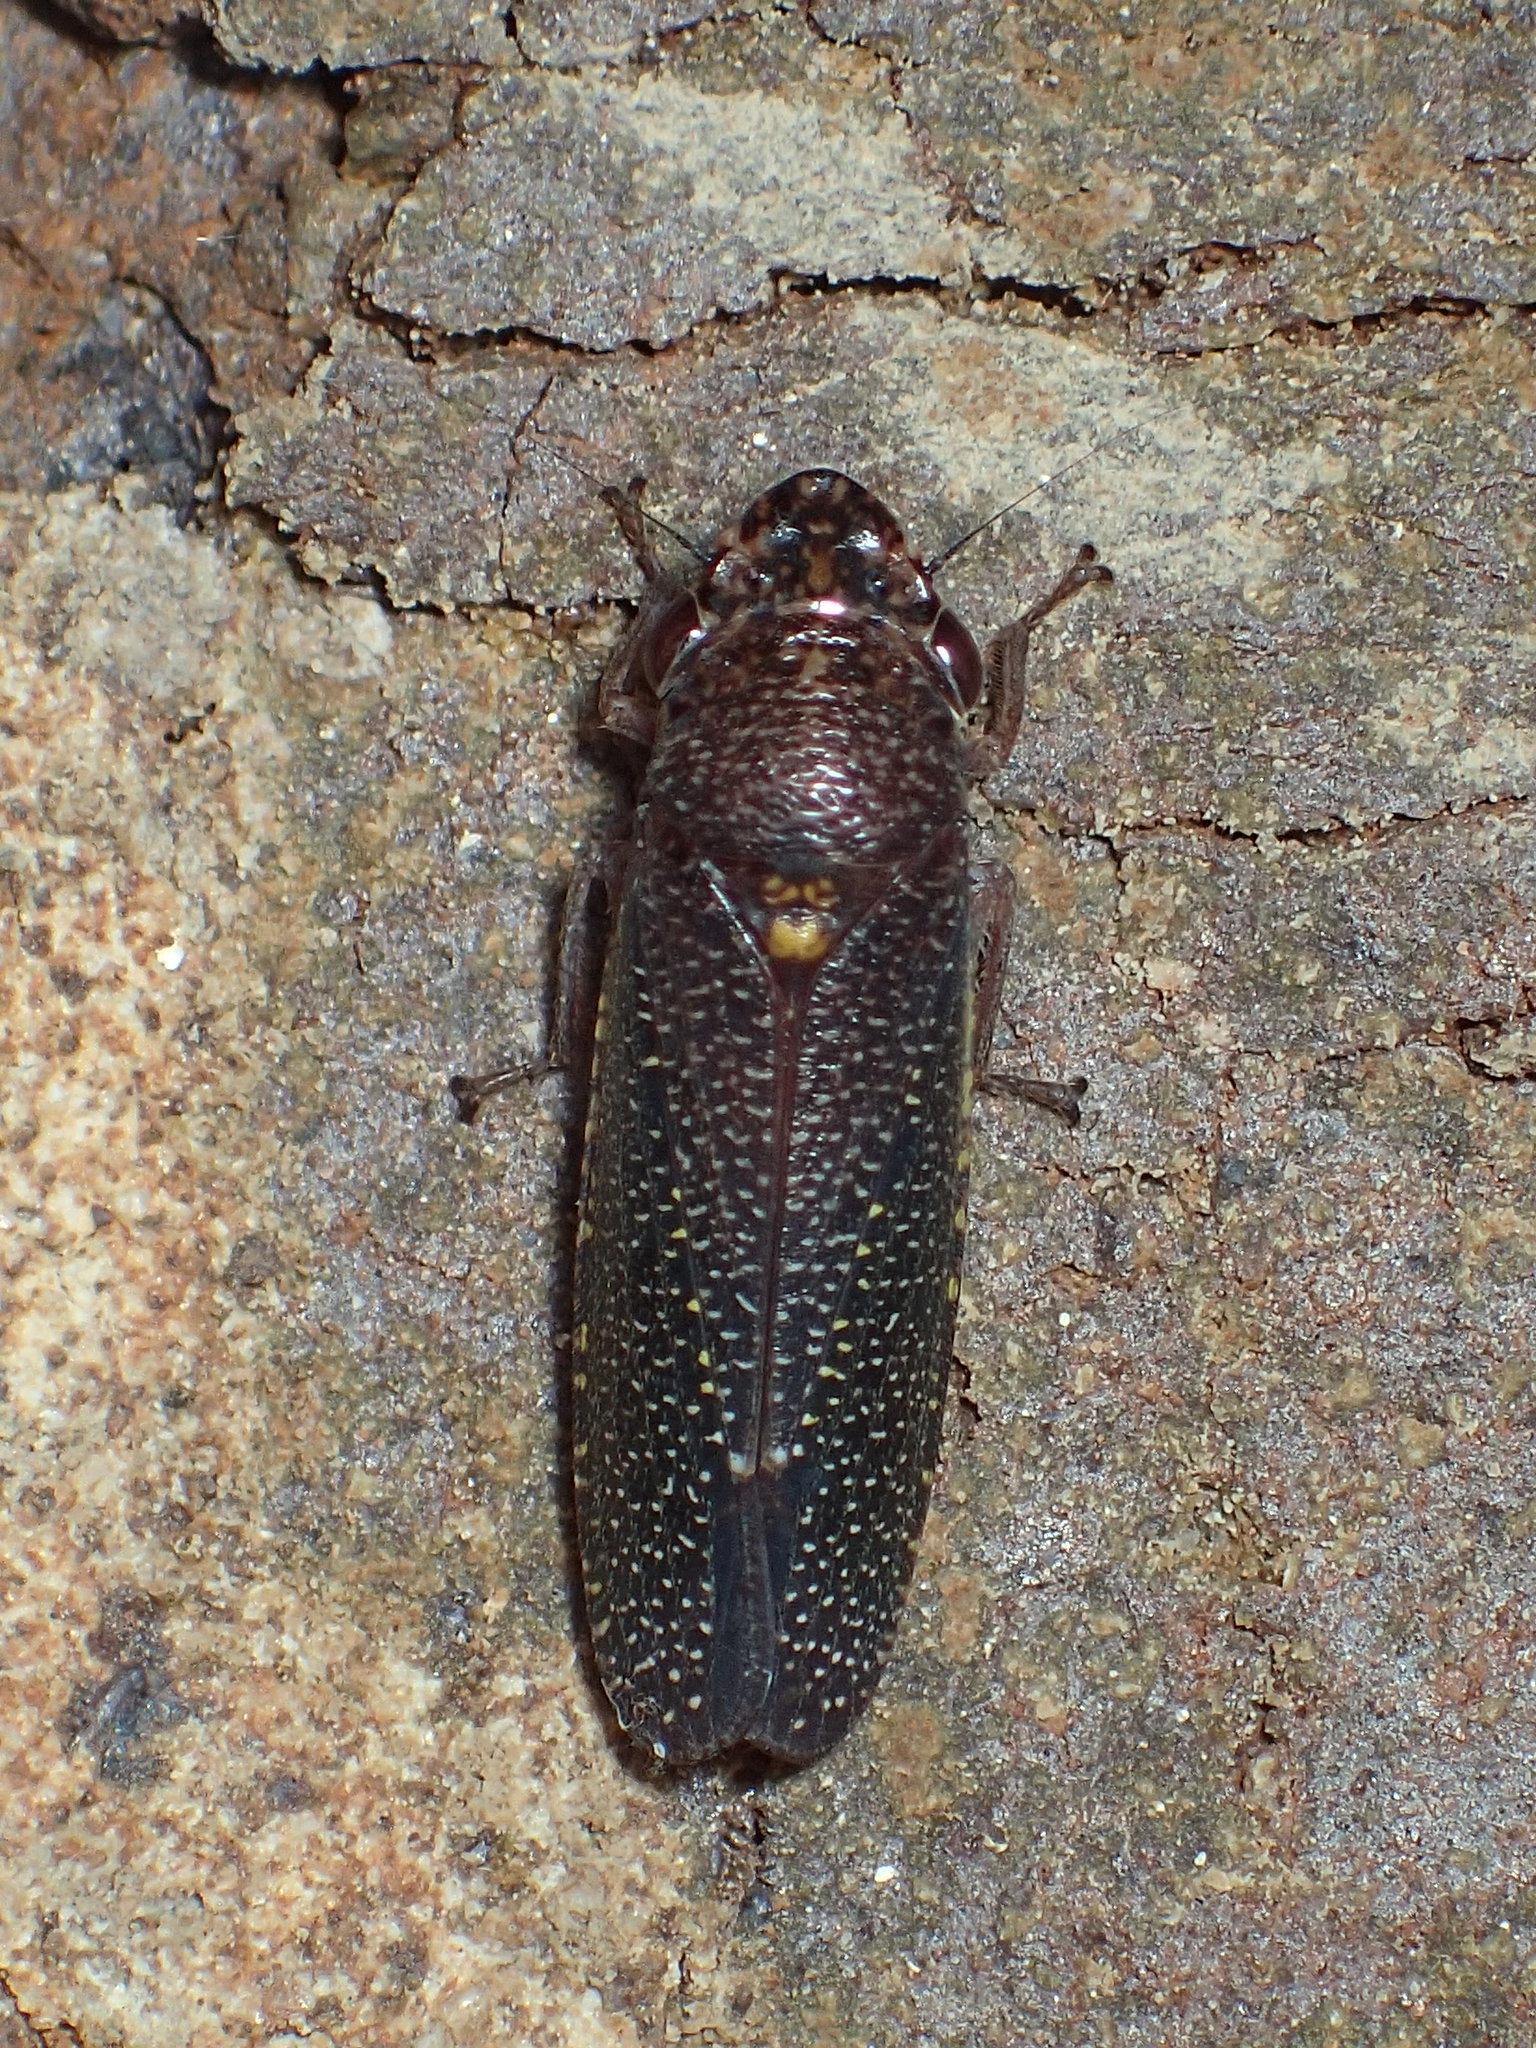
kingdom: Animalia
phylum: Arthropoda
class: Insecta
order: Hemiptera
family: Cicadellidae
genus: Paraulacizes
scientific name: Paraulacizes irrorata
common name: Speckled sharpshooter
